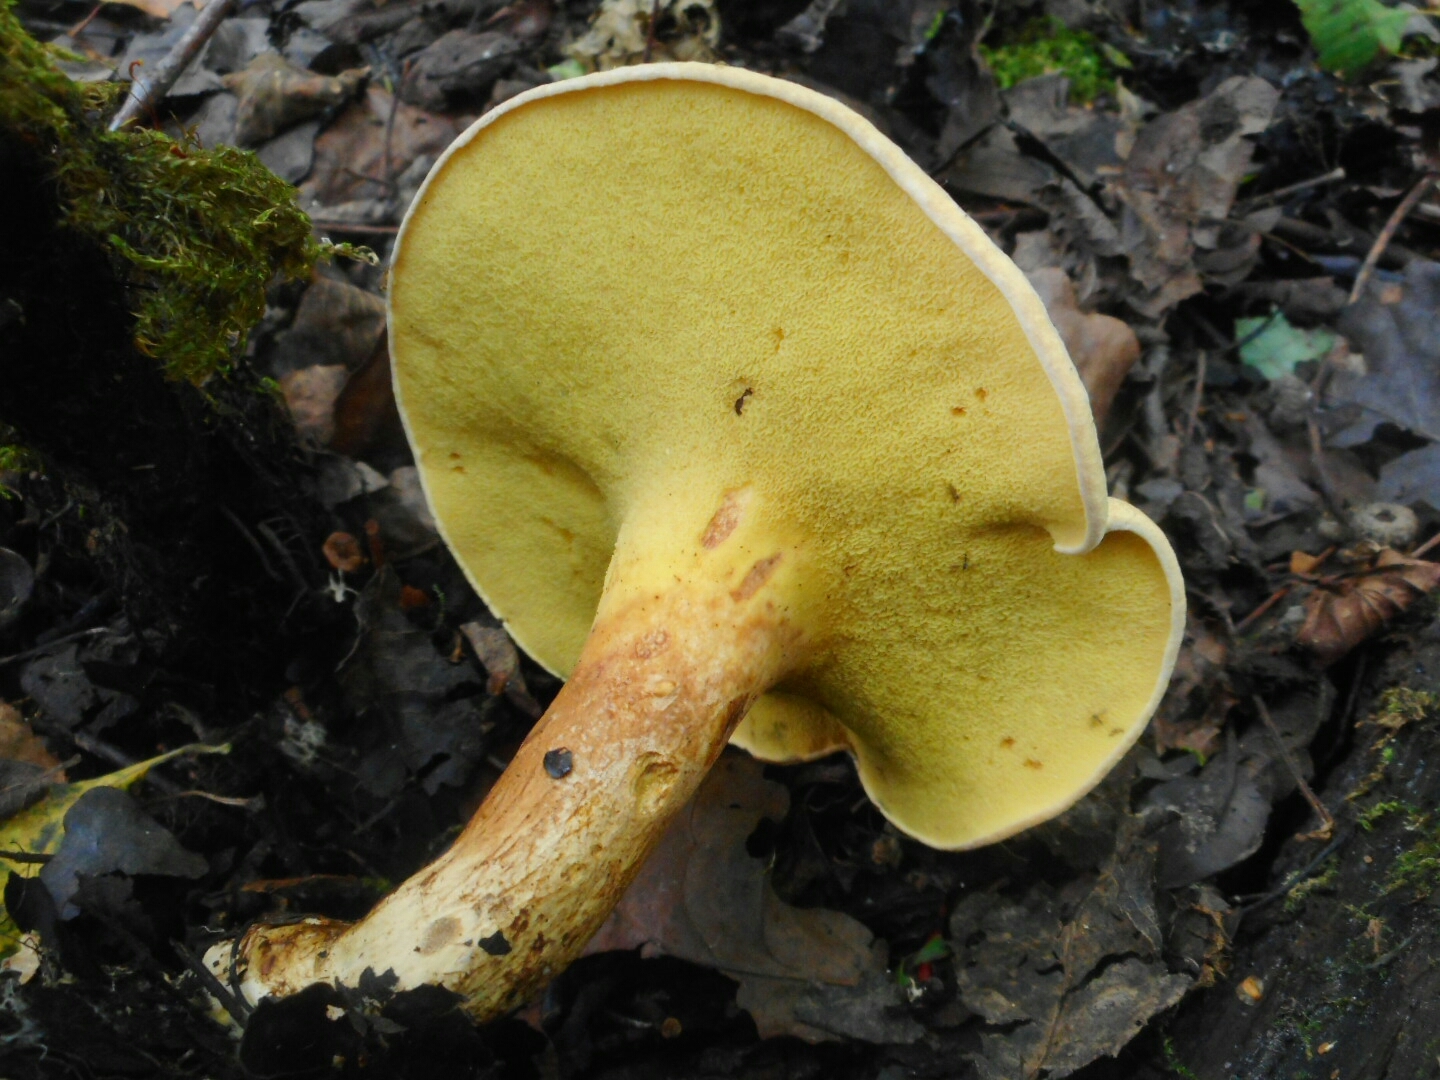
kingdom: Fungi
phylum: Basidiomycota
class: Agaricomycetes
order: Boletales
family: Paxillaceae
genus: Gyrodon
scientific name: Gyrodon lividus
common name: Alder bolete
